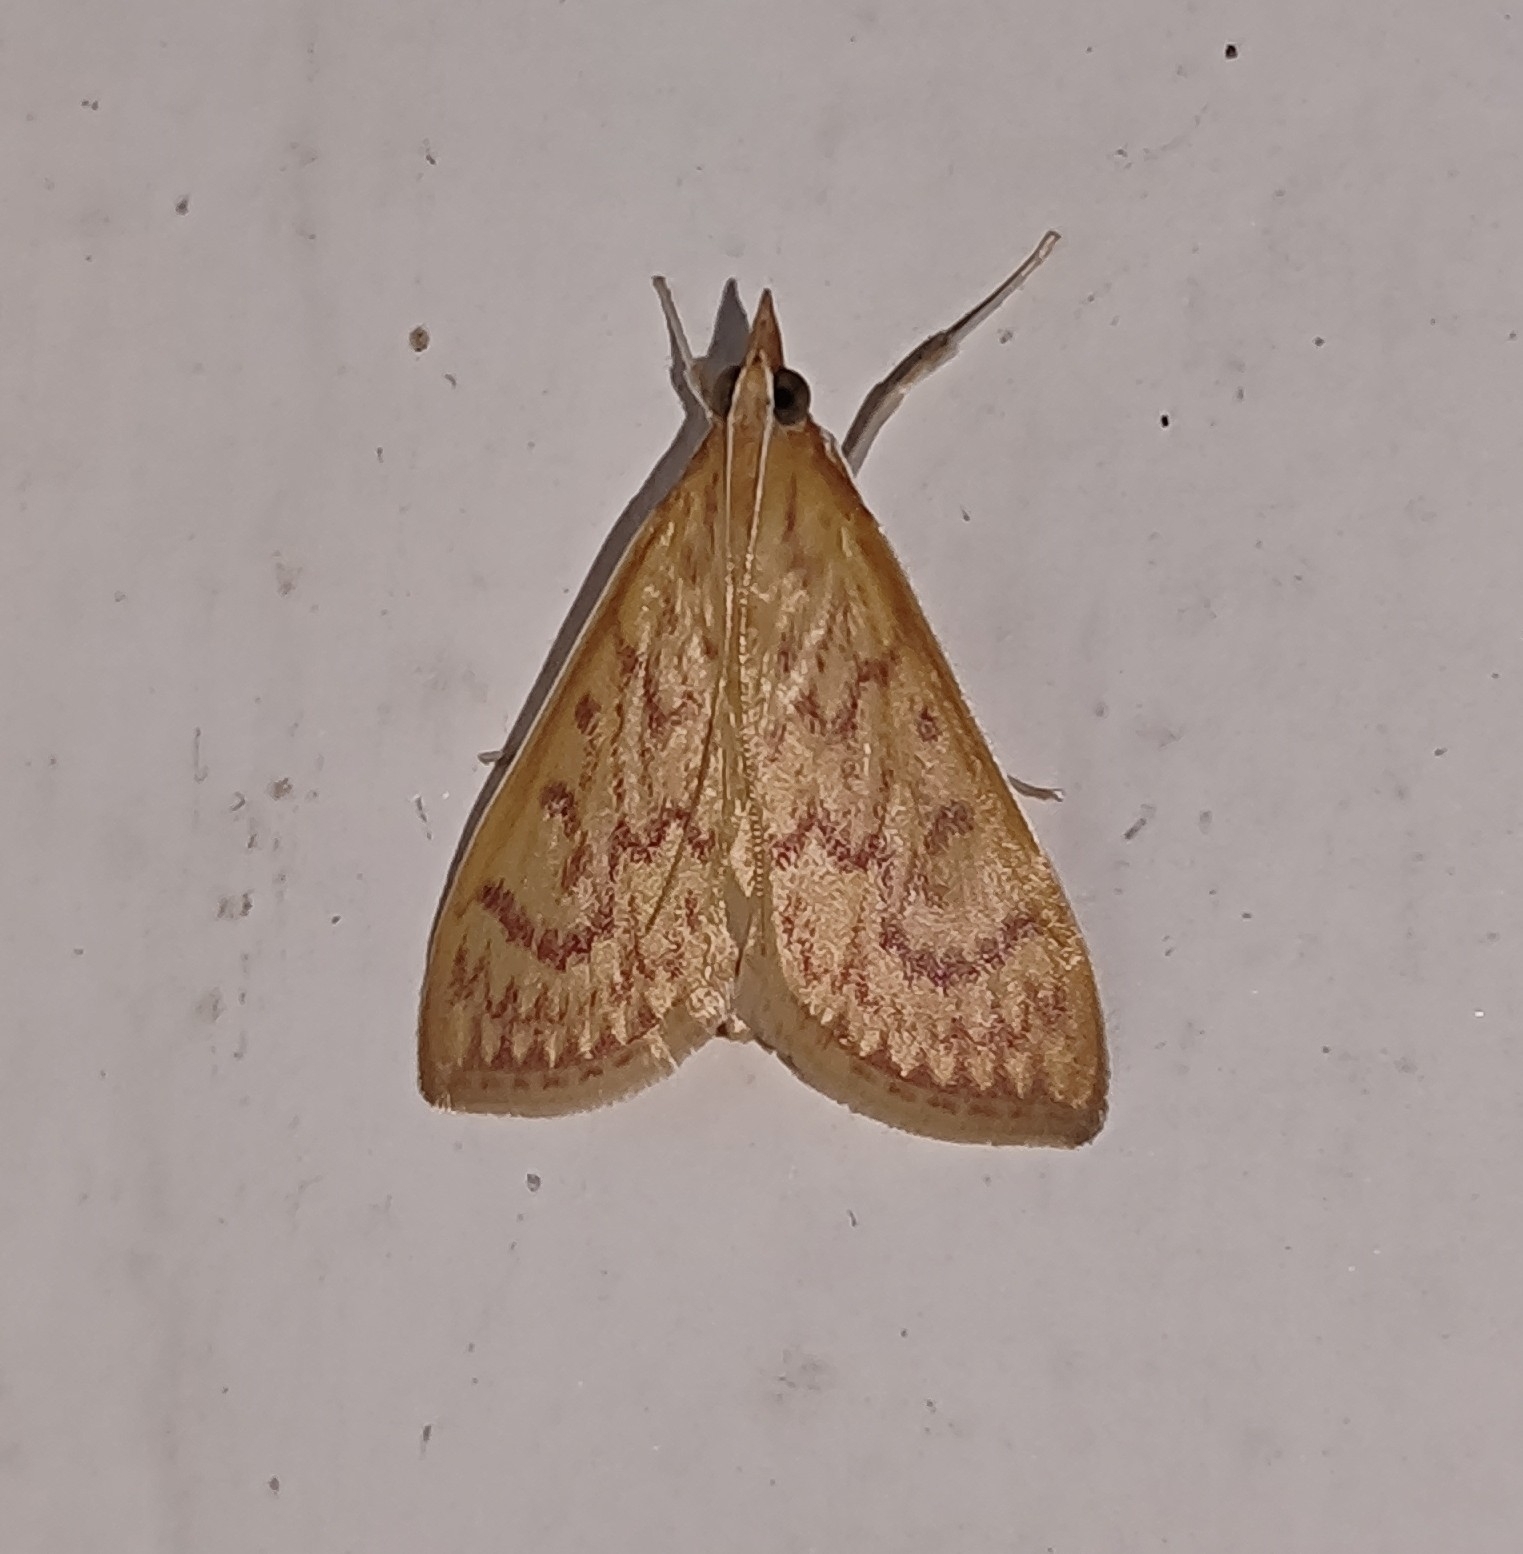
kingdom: Animalia
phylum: Arthropoda
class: Insecta
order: Lepidoptera
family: Crambidae
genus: Paliga
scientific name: Paliga damastesalis
